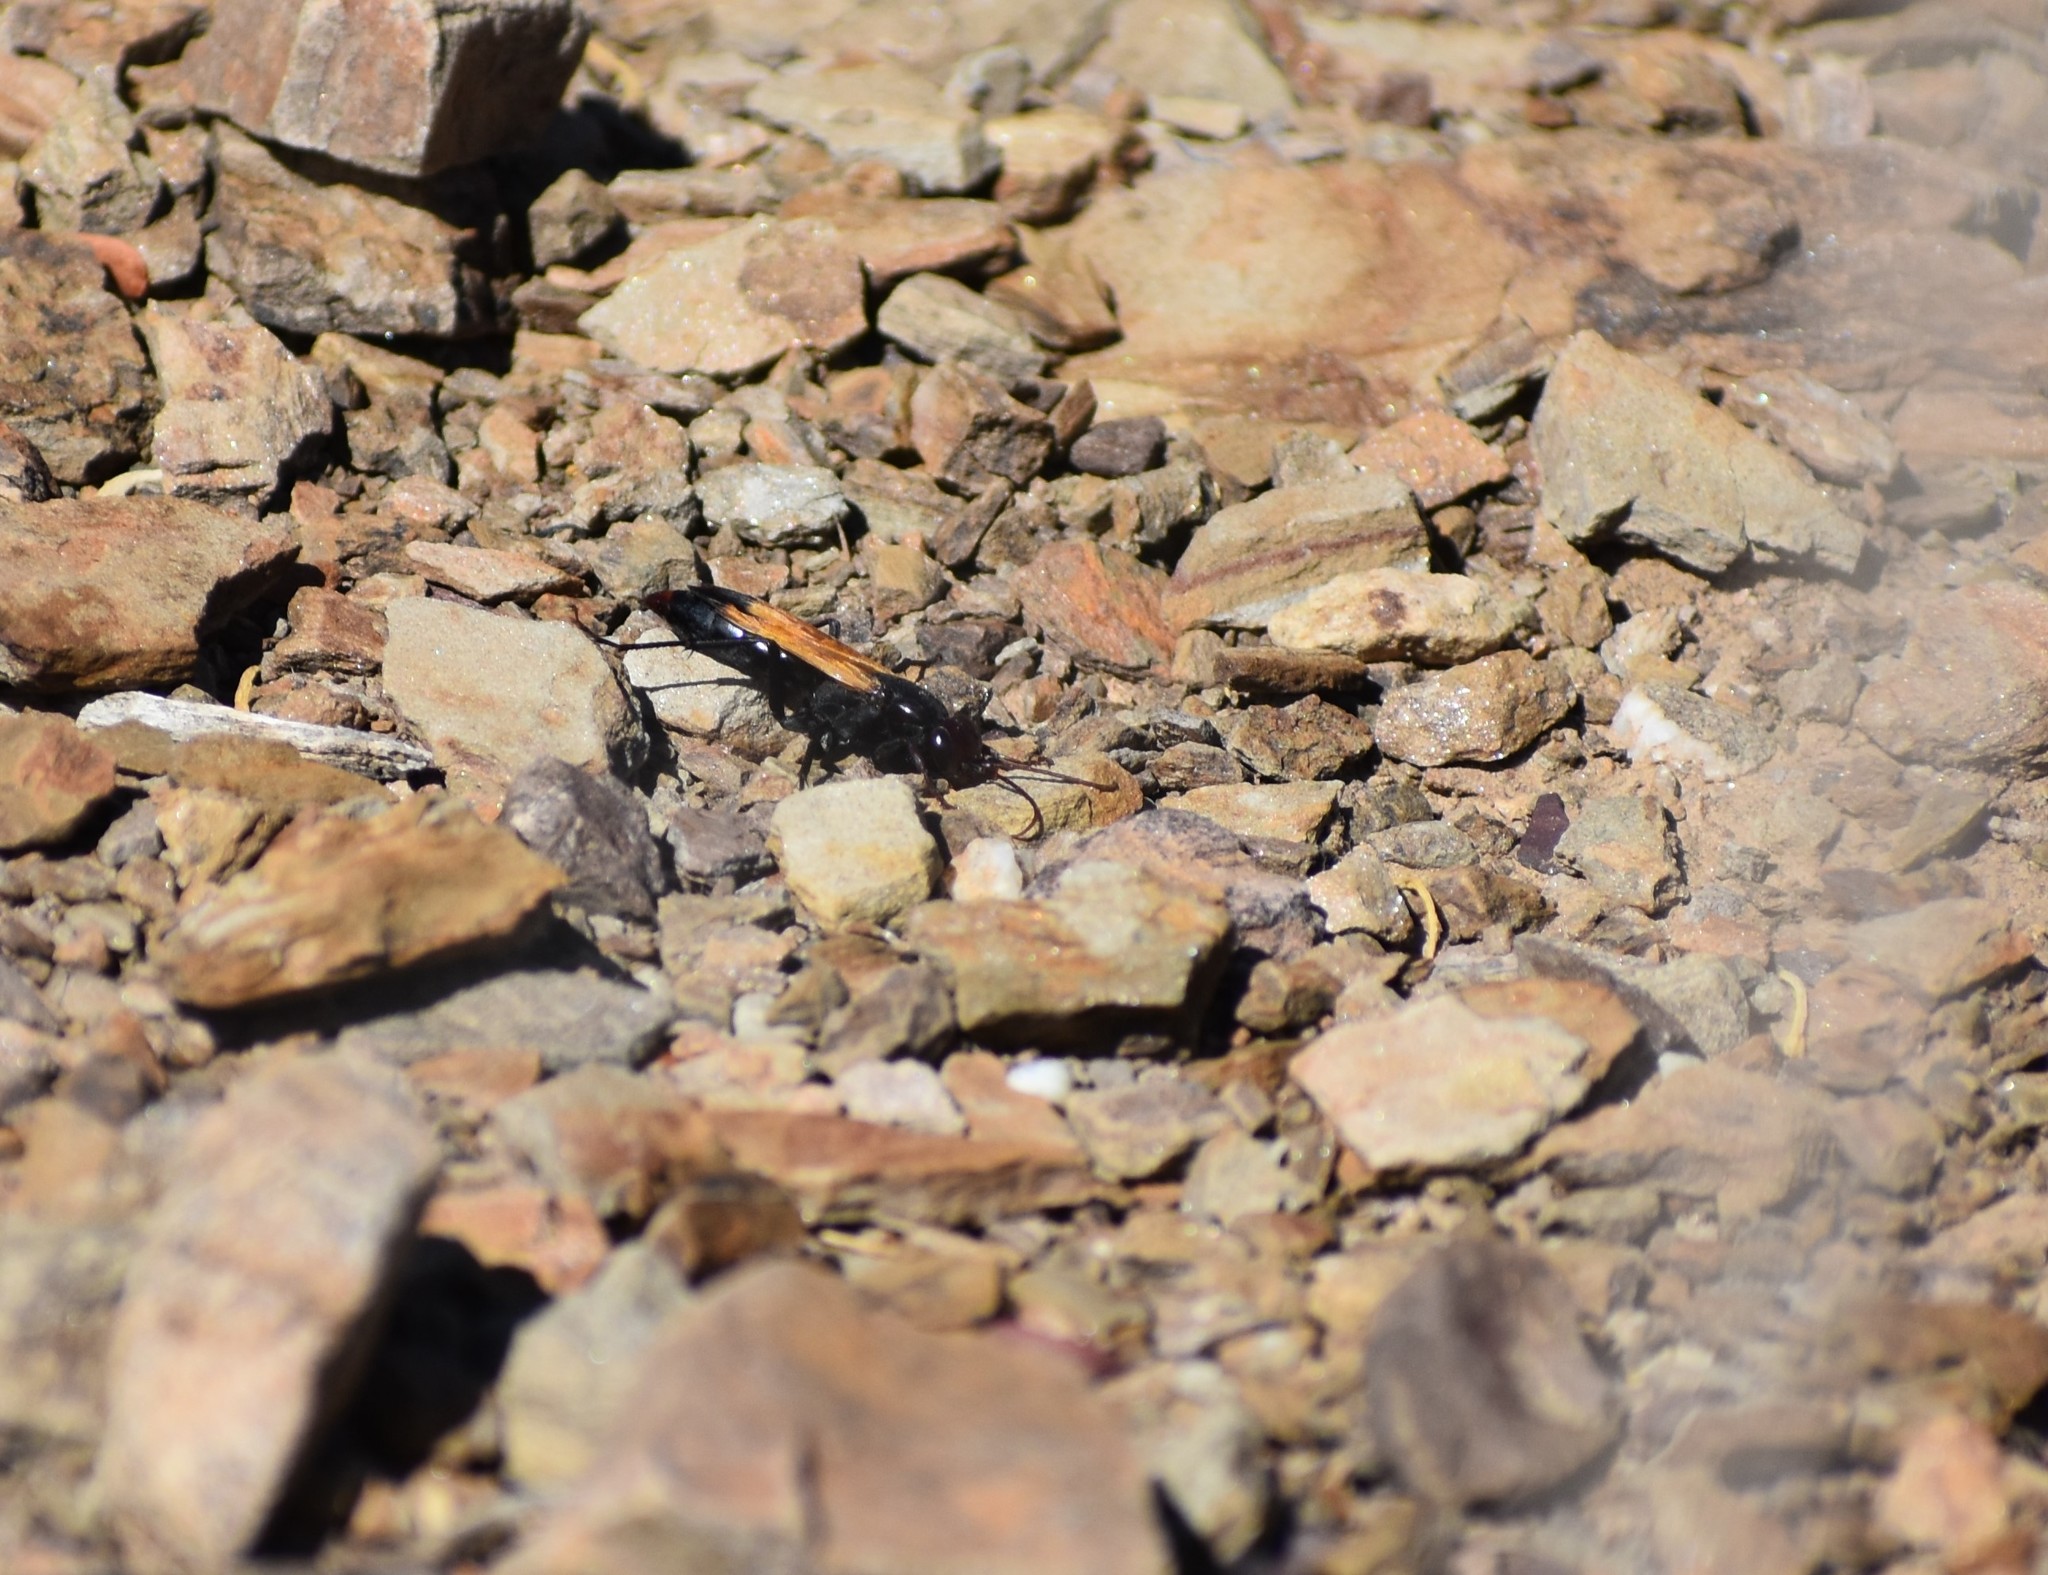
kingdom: Animalia
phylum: Arthropoda
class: Insecta
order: Hymenoptera
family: Pompilidae
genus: Tachypompilus
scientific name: Tachypompilus ignitus
